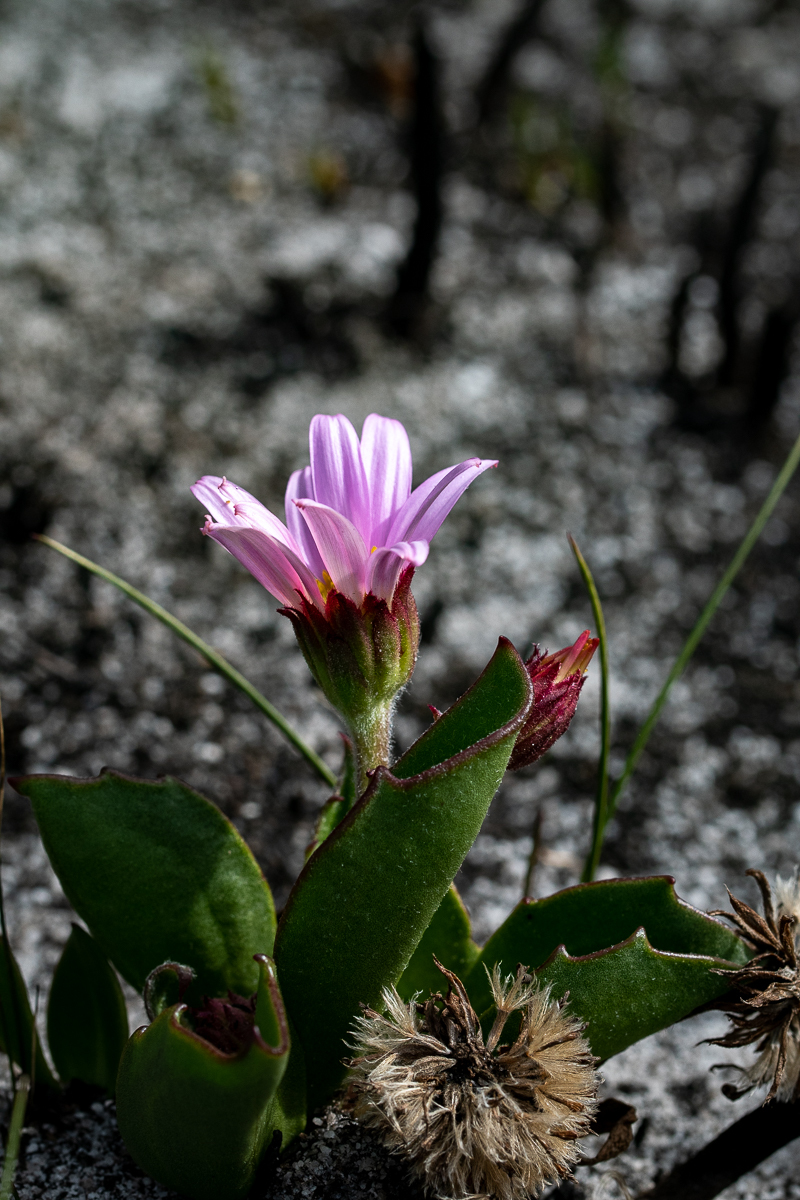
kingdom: Plantae
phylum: Tracheophyta
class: Magnoliopsida
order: Asterales
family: Asteraceae
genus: Mairia
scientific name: Mairia coriacea
